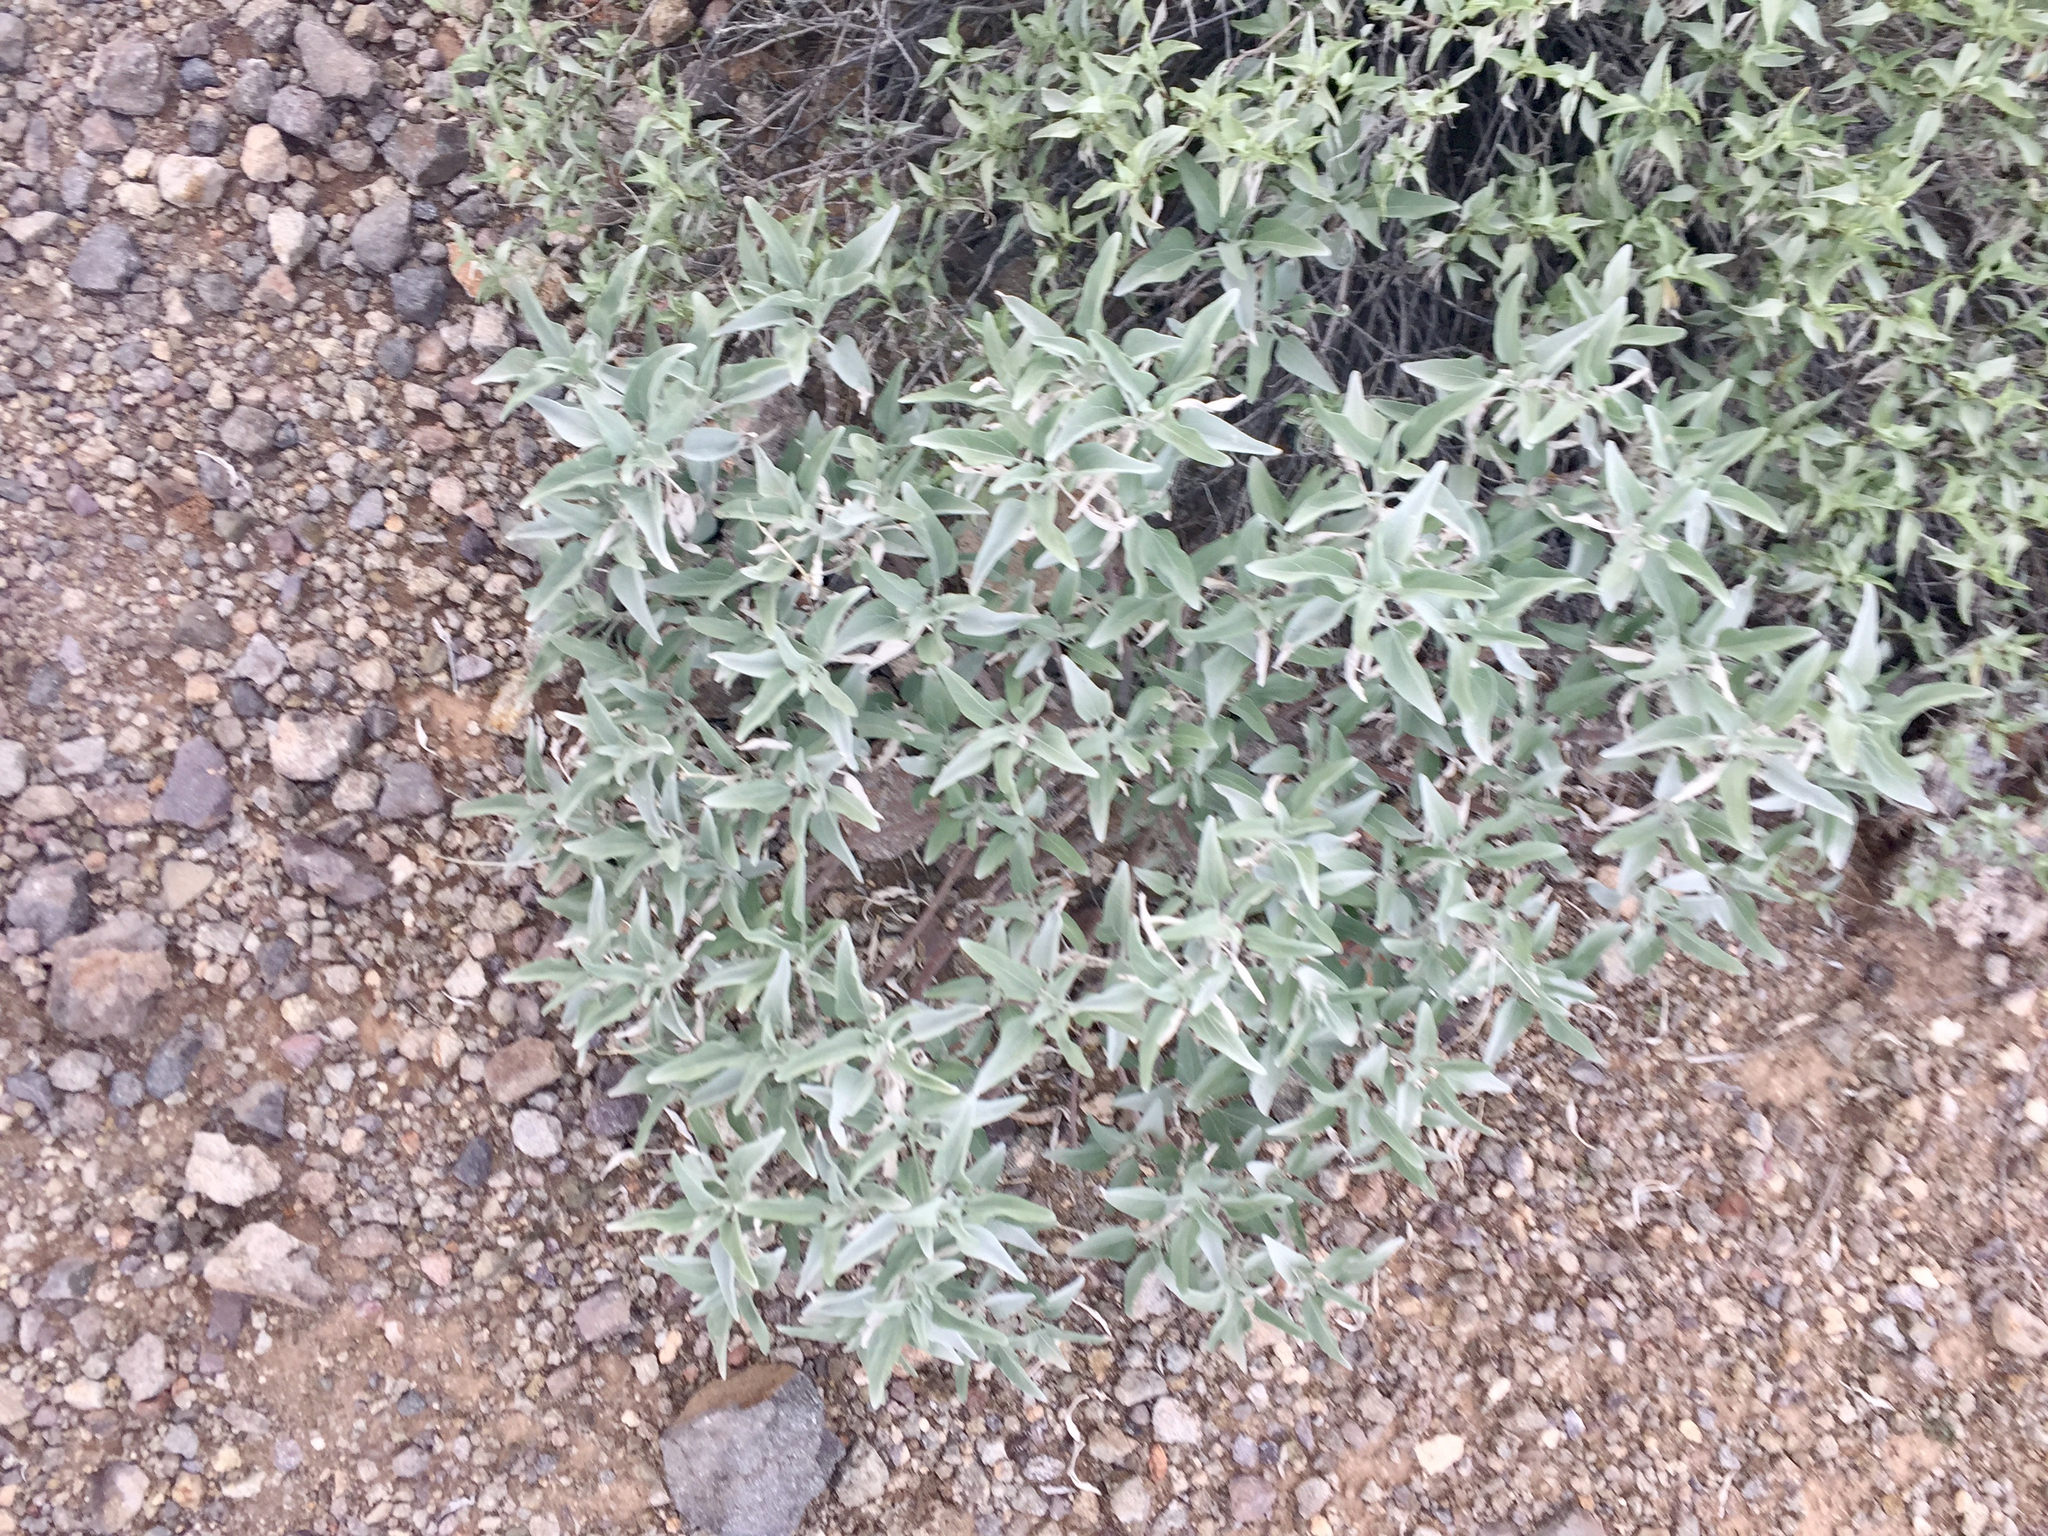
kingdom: Plantae
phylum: Tracheophyta
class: Magnoliopsida
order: Asterales
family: Asteraceae
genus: Encelia
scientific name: Encelia farinosa
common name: Brittlebush
